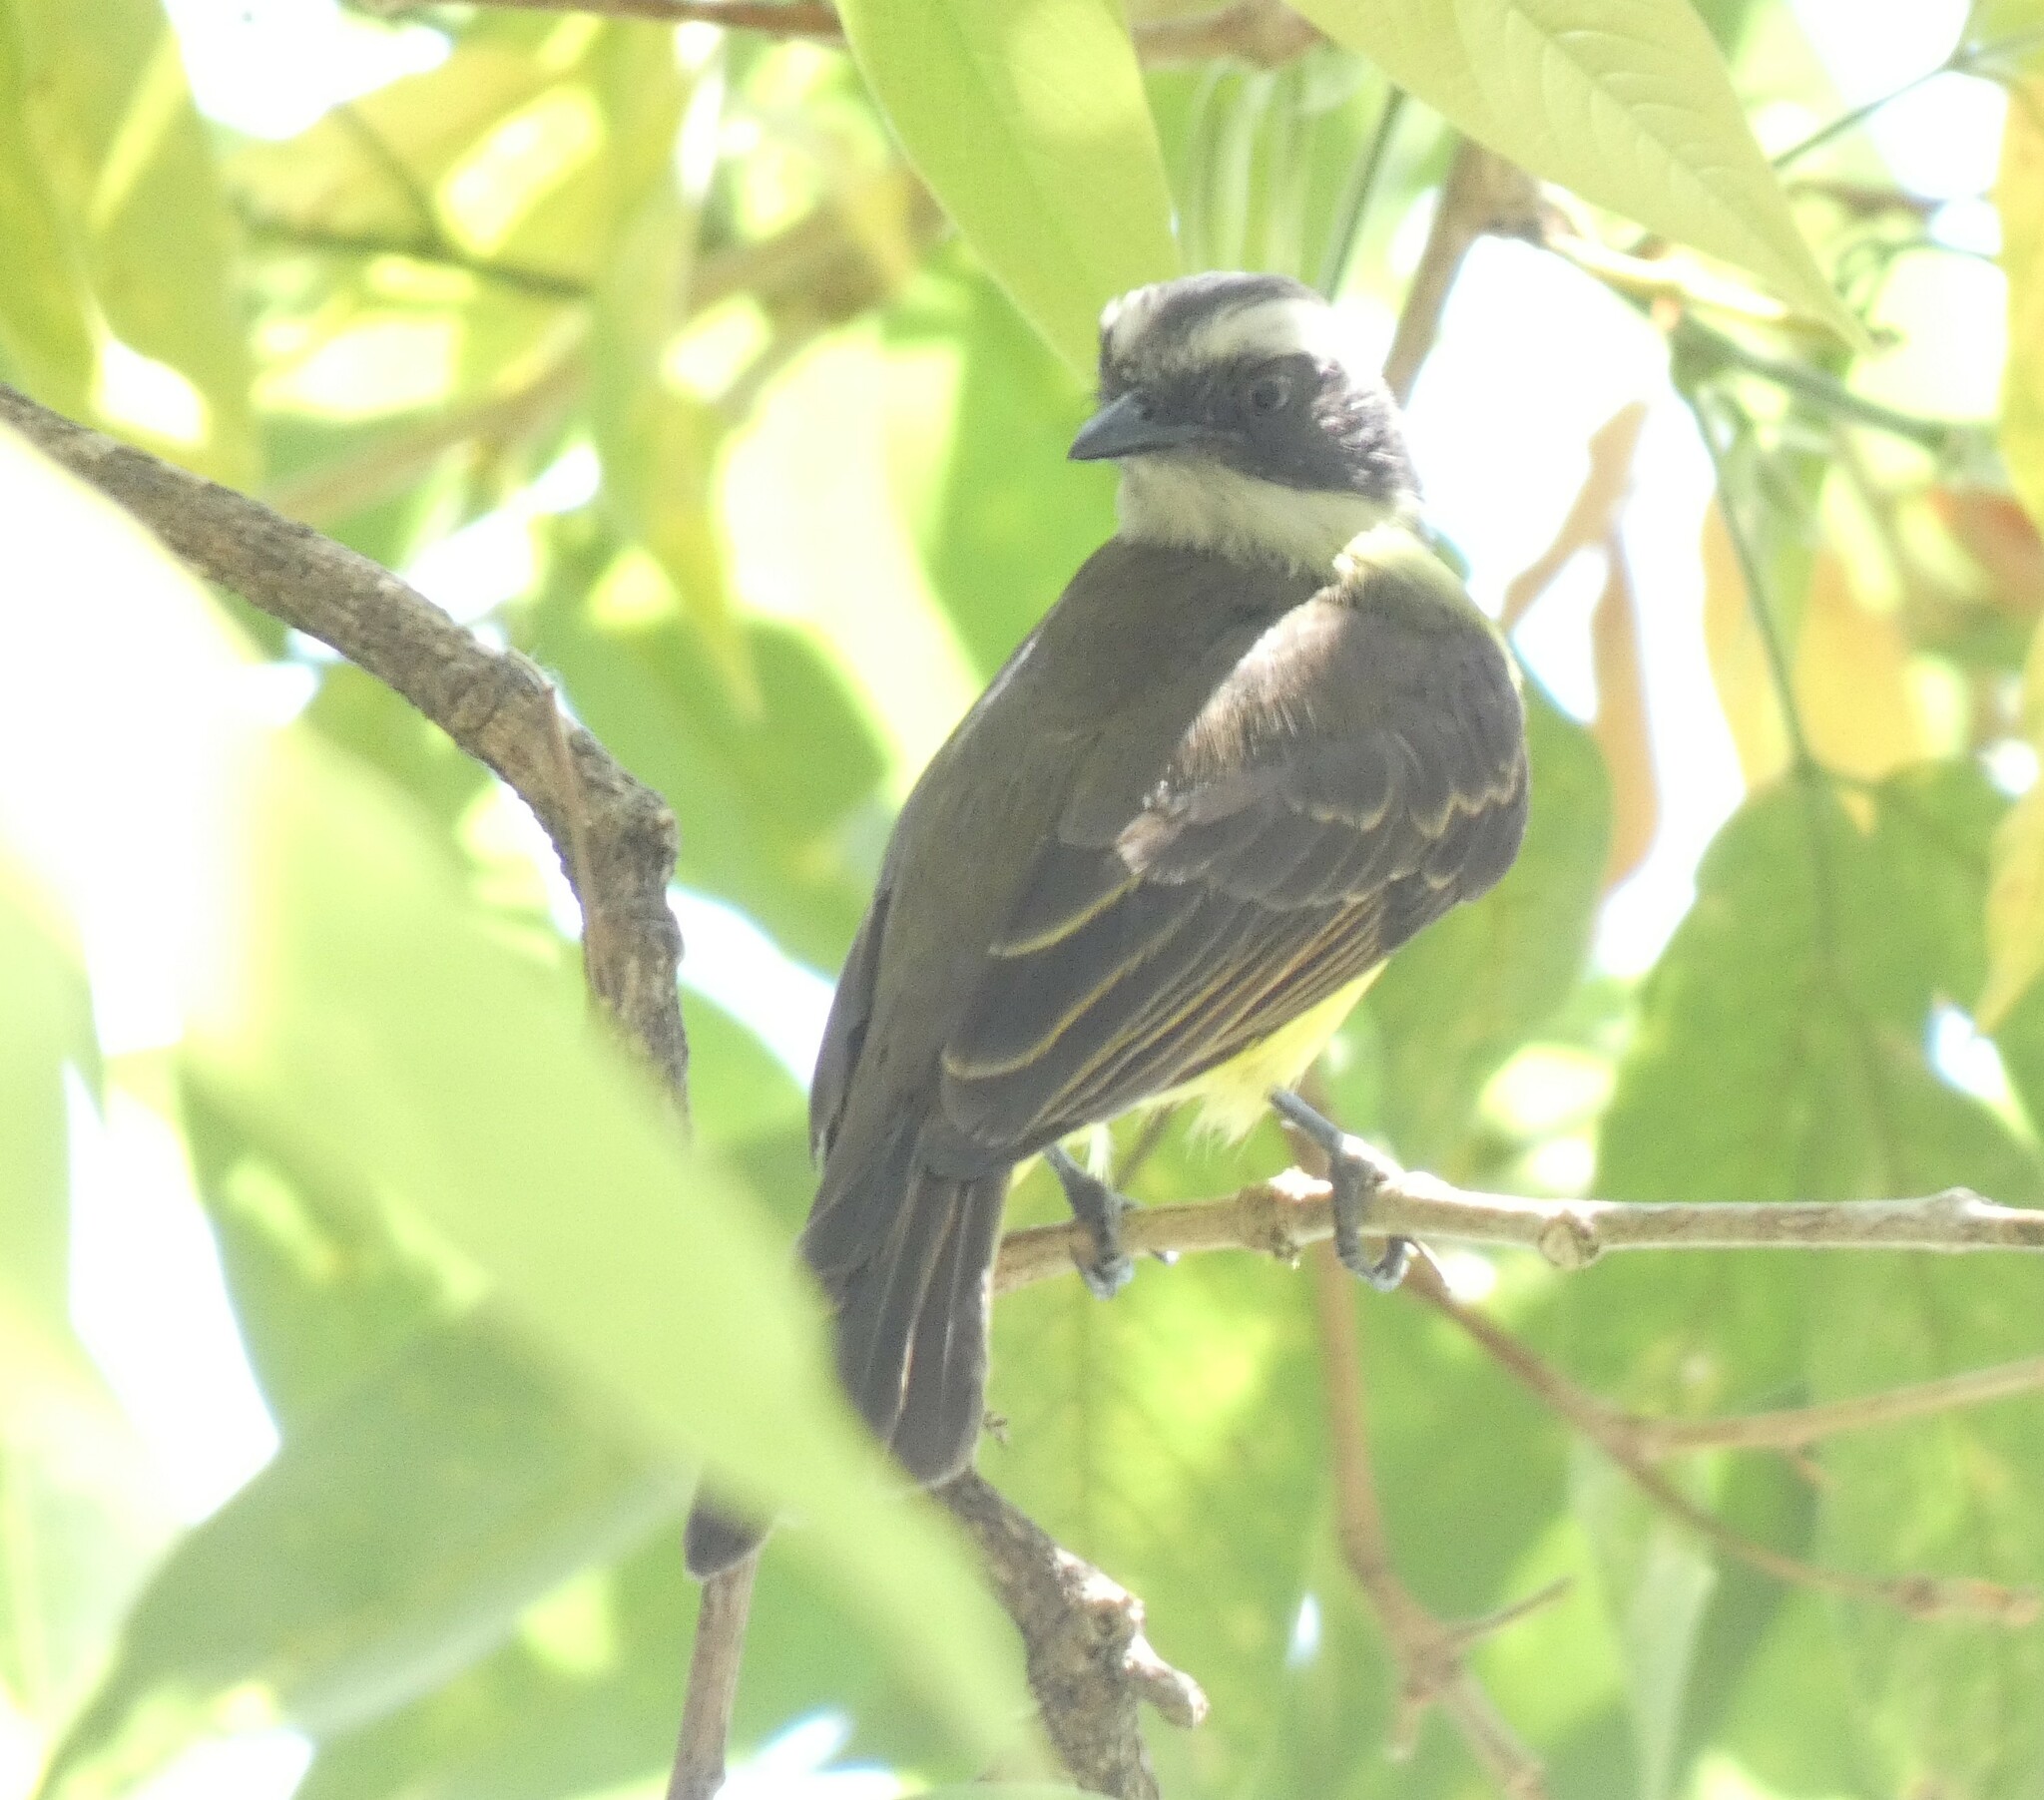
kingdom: Animalia
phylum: Chordata
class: Aves
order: Passeriformes
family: Tyrannidae
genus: Myiozetetes
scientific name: Myiozetetes similis
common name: Social flycatcher
